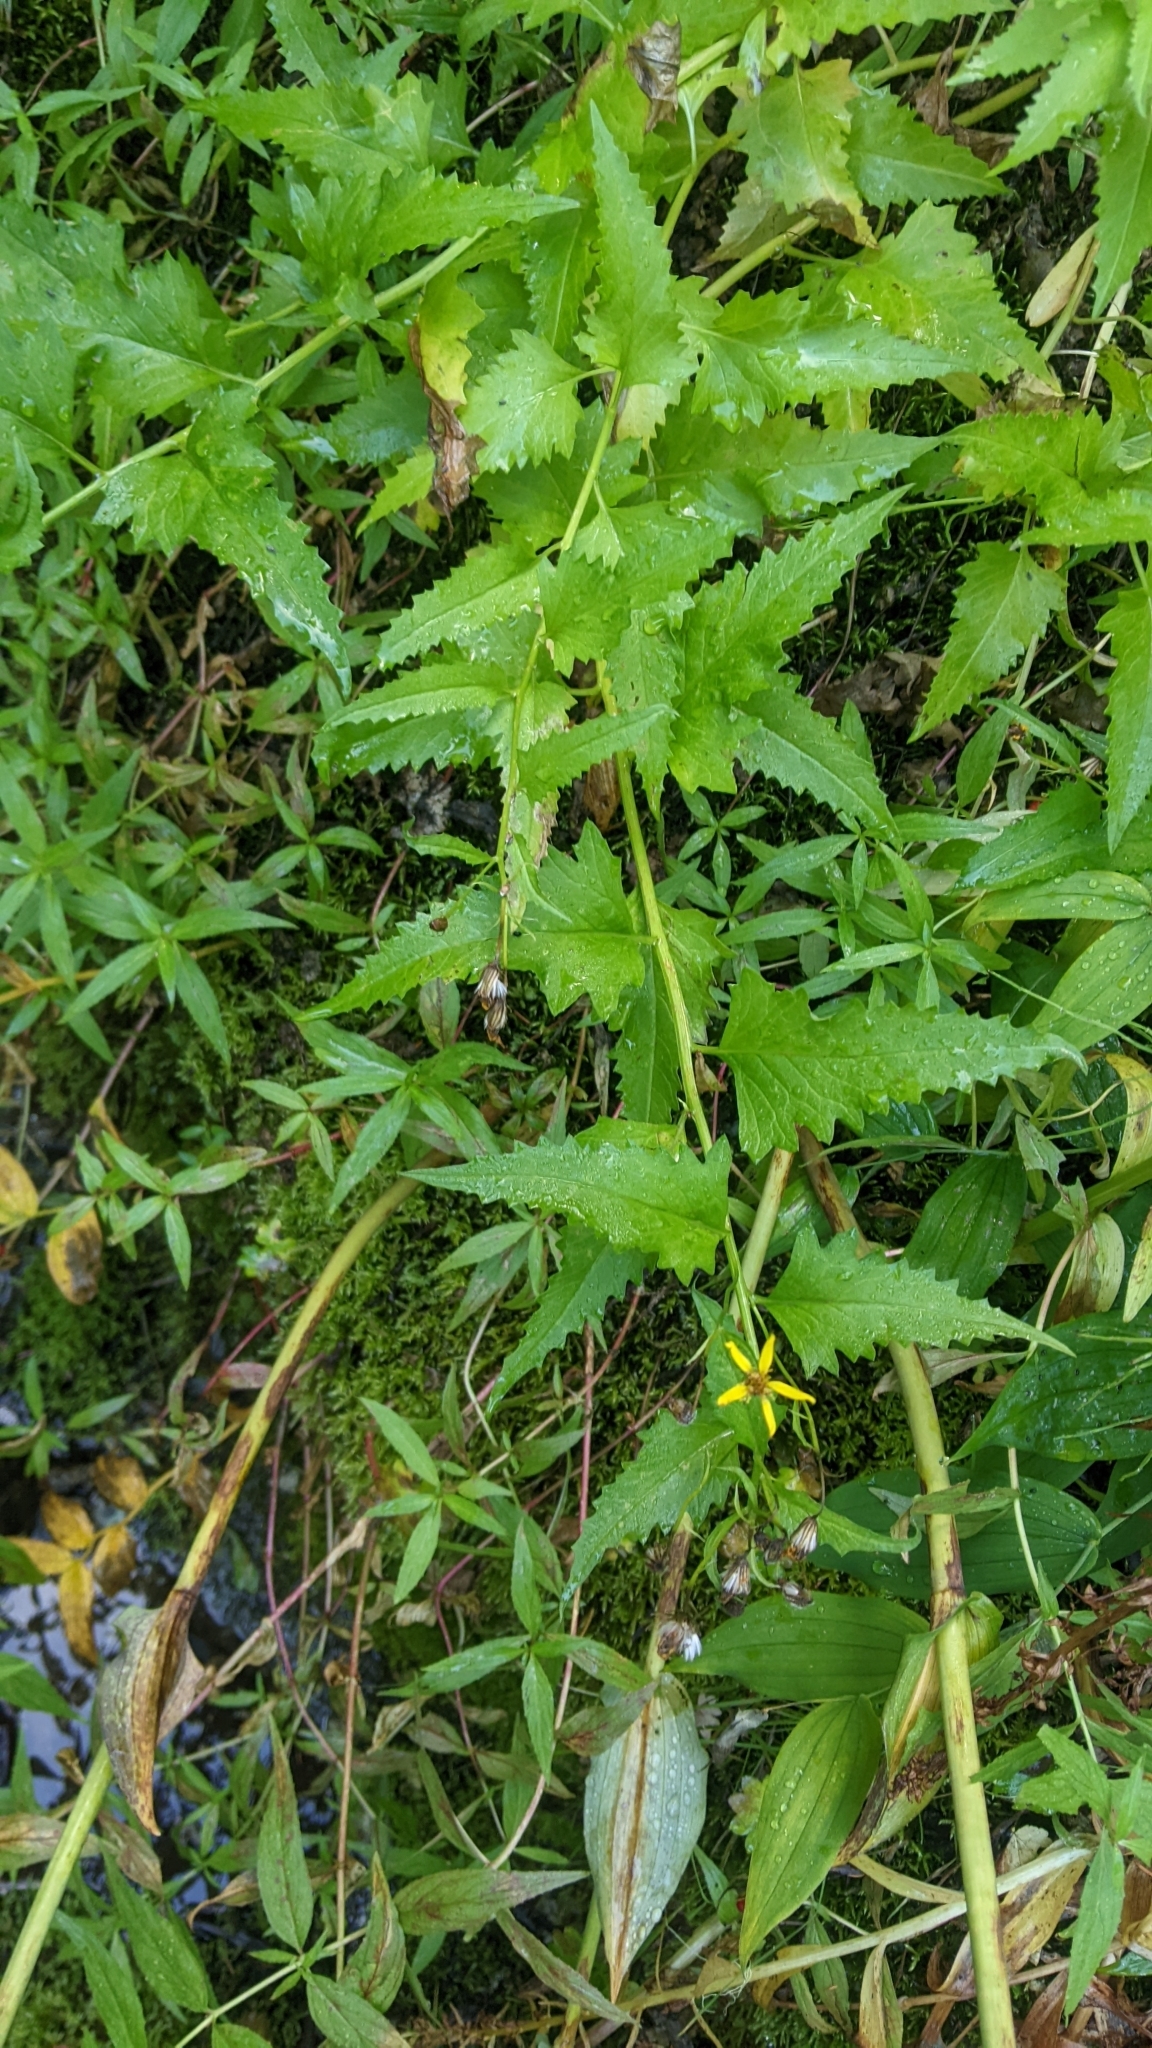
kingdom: Plantae
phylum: Tracheophyta
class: Magnoliopsida
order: Asterales
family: Asteraceae
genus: Senecio
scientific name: Senecio triangularis
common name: Arrowleaf butterweed
